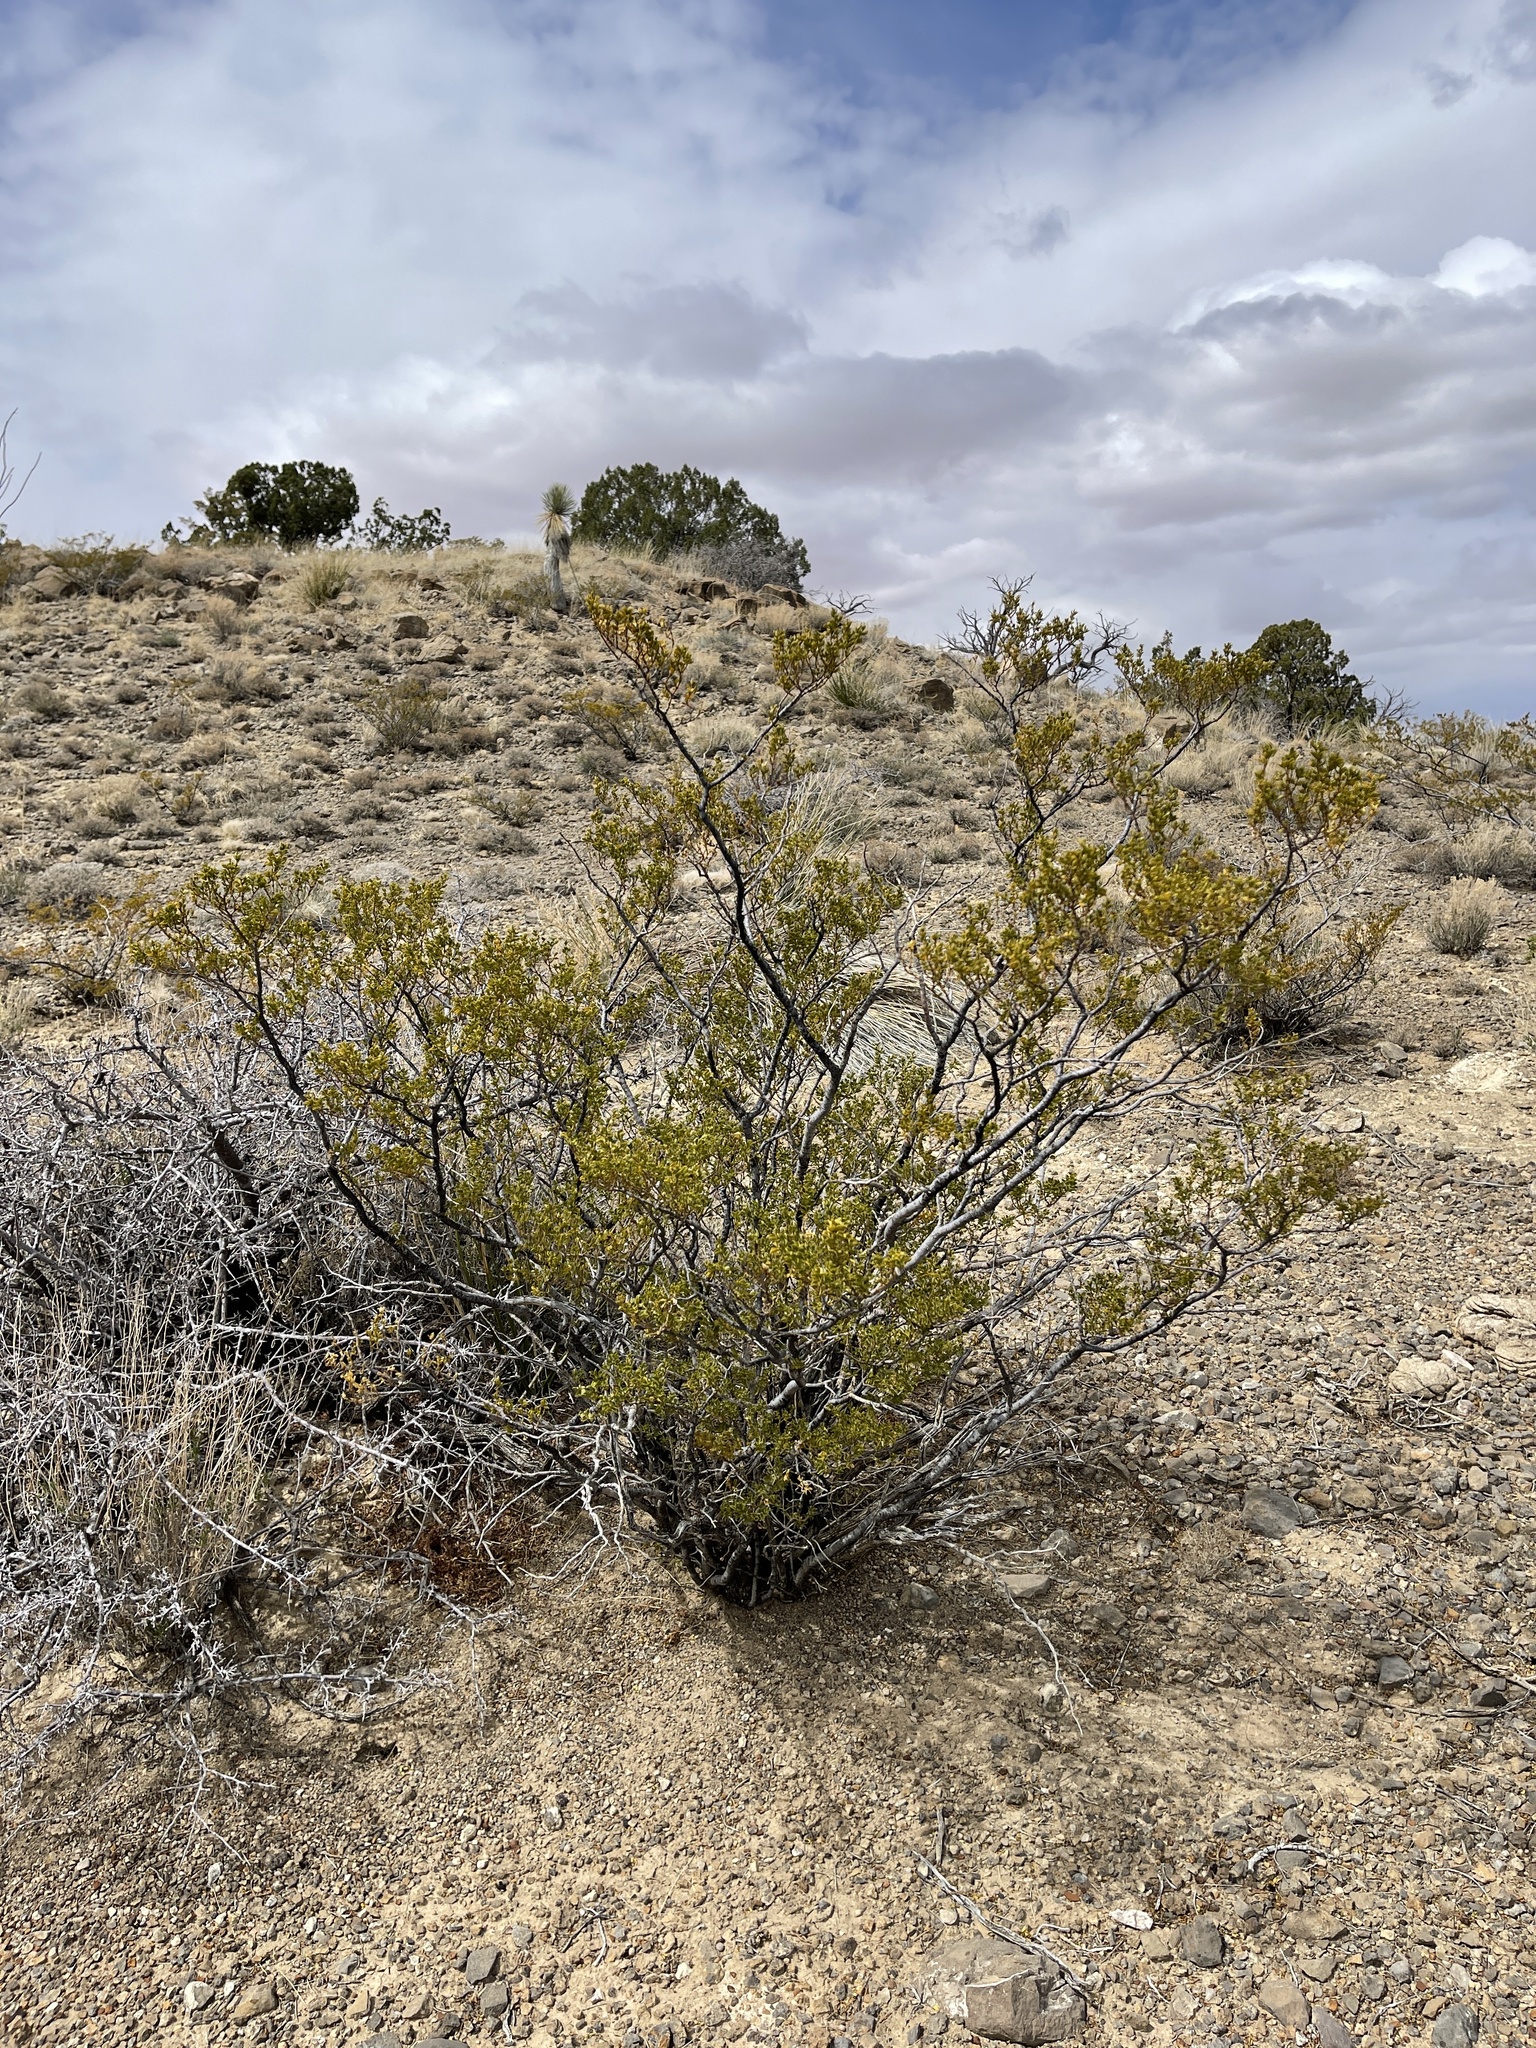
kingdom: Plantae
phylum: Tracheophyta
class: Magnoliopsida
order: Zygophyllales
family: Zygophyllaceae
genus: Larrea
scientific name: Larrea tridentata
